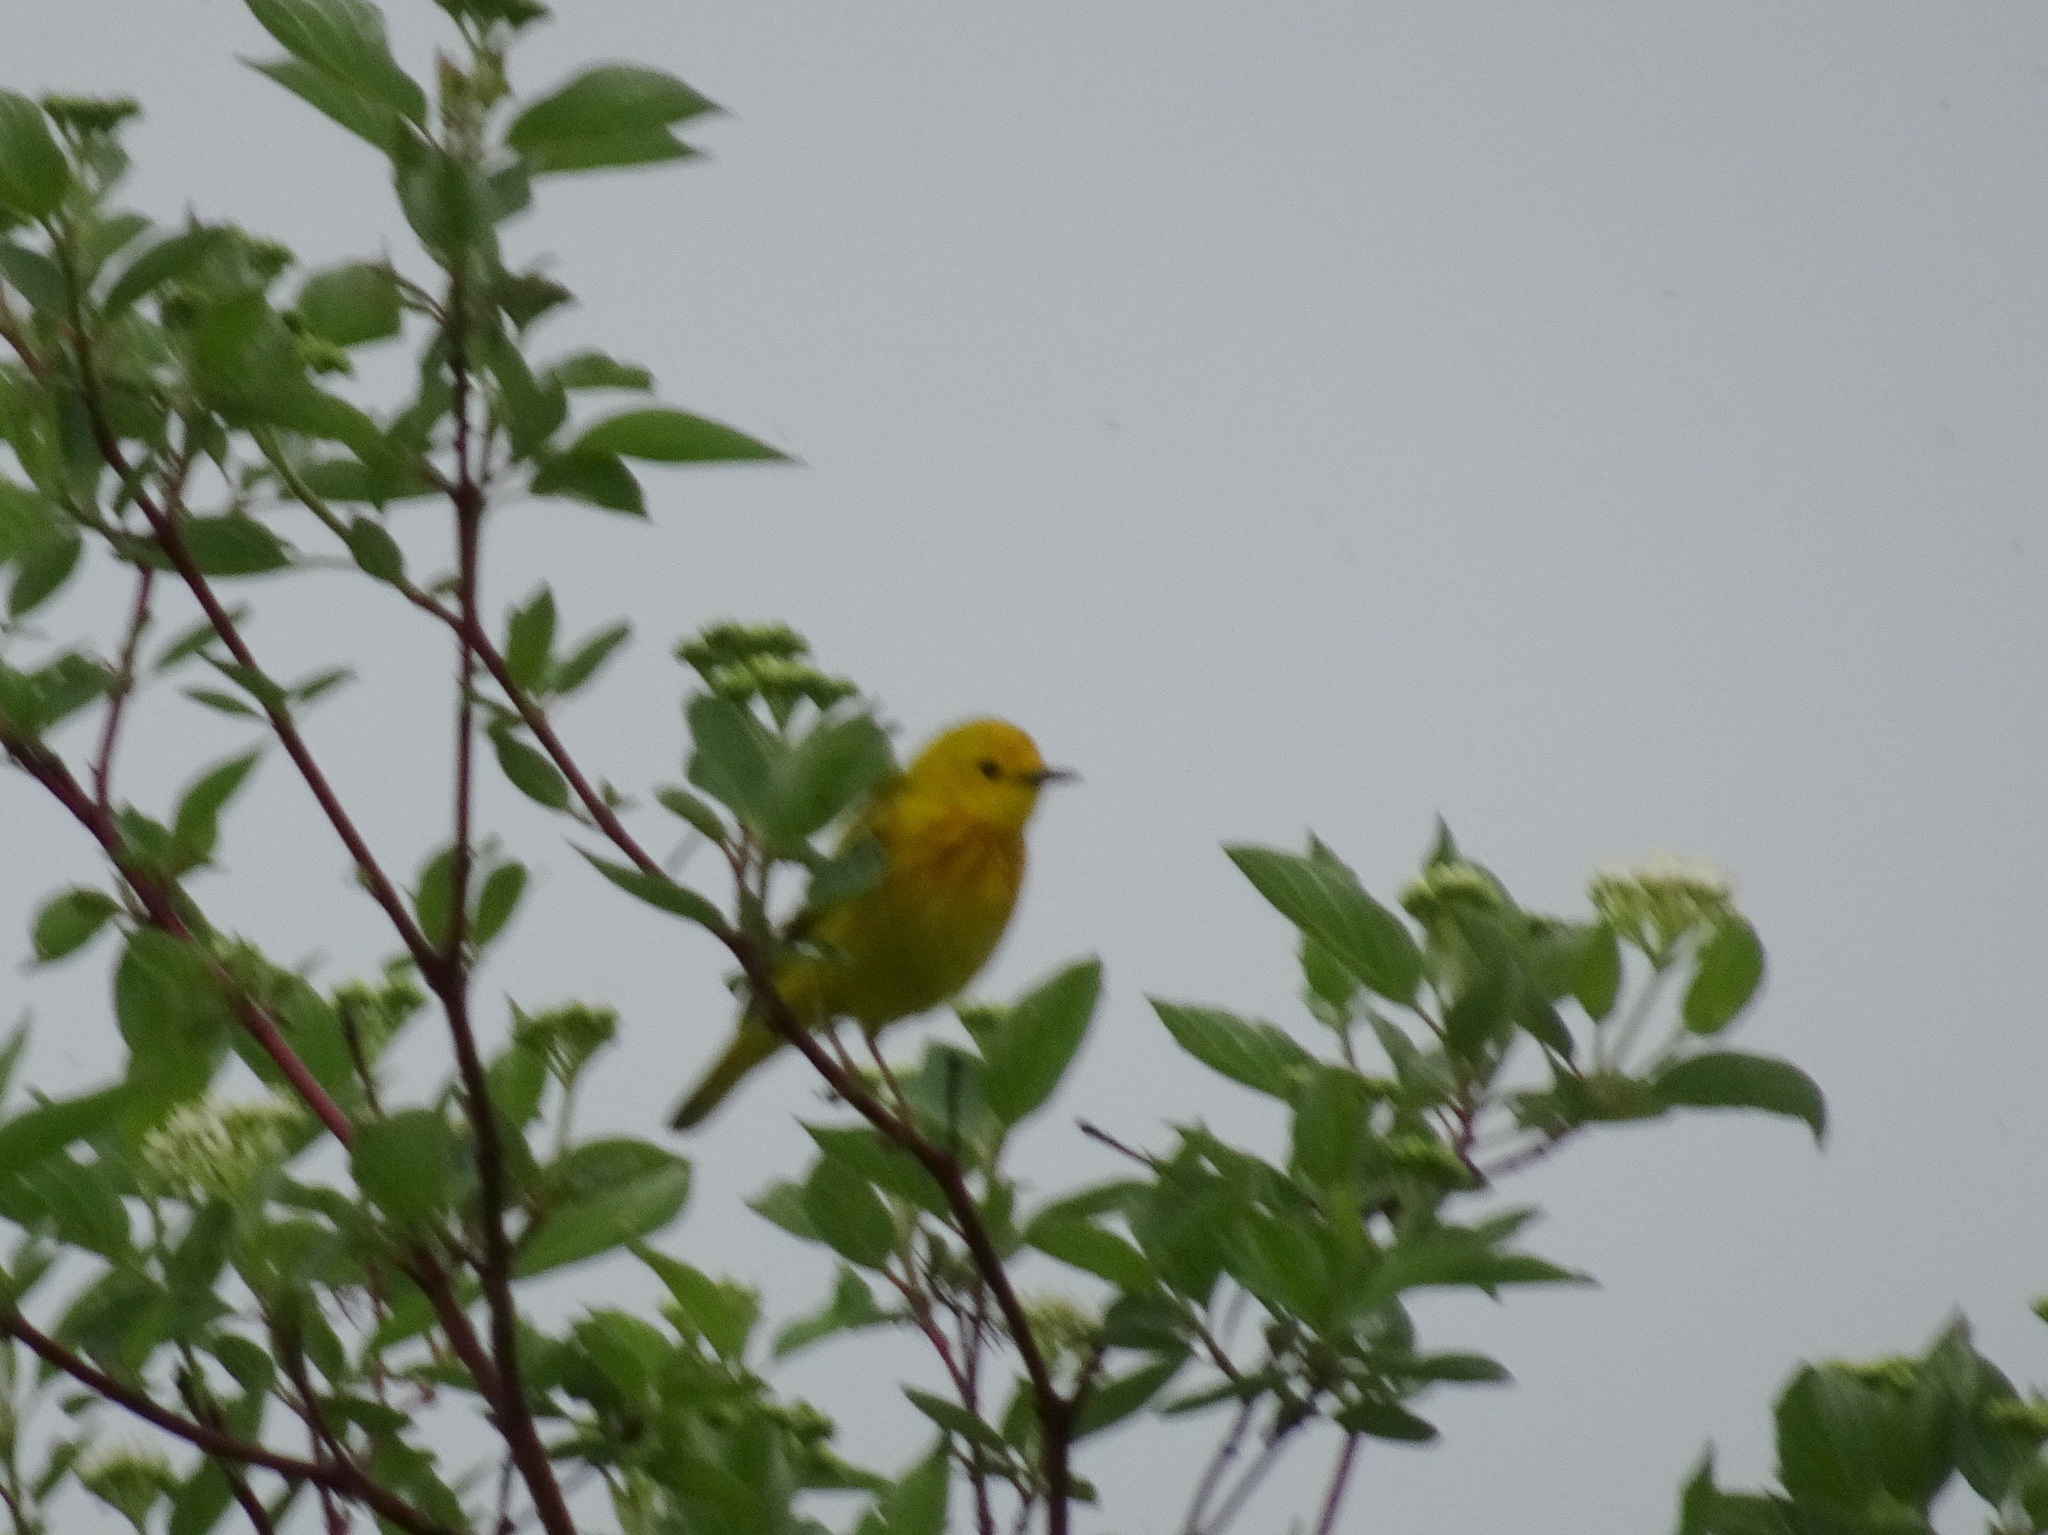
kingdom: Animalia
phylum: Chordata
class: Aves
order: Passeriformes
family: Parulidae
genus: Setophaga
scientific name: Setophaga petechia
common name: Yellow warbler
